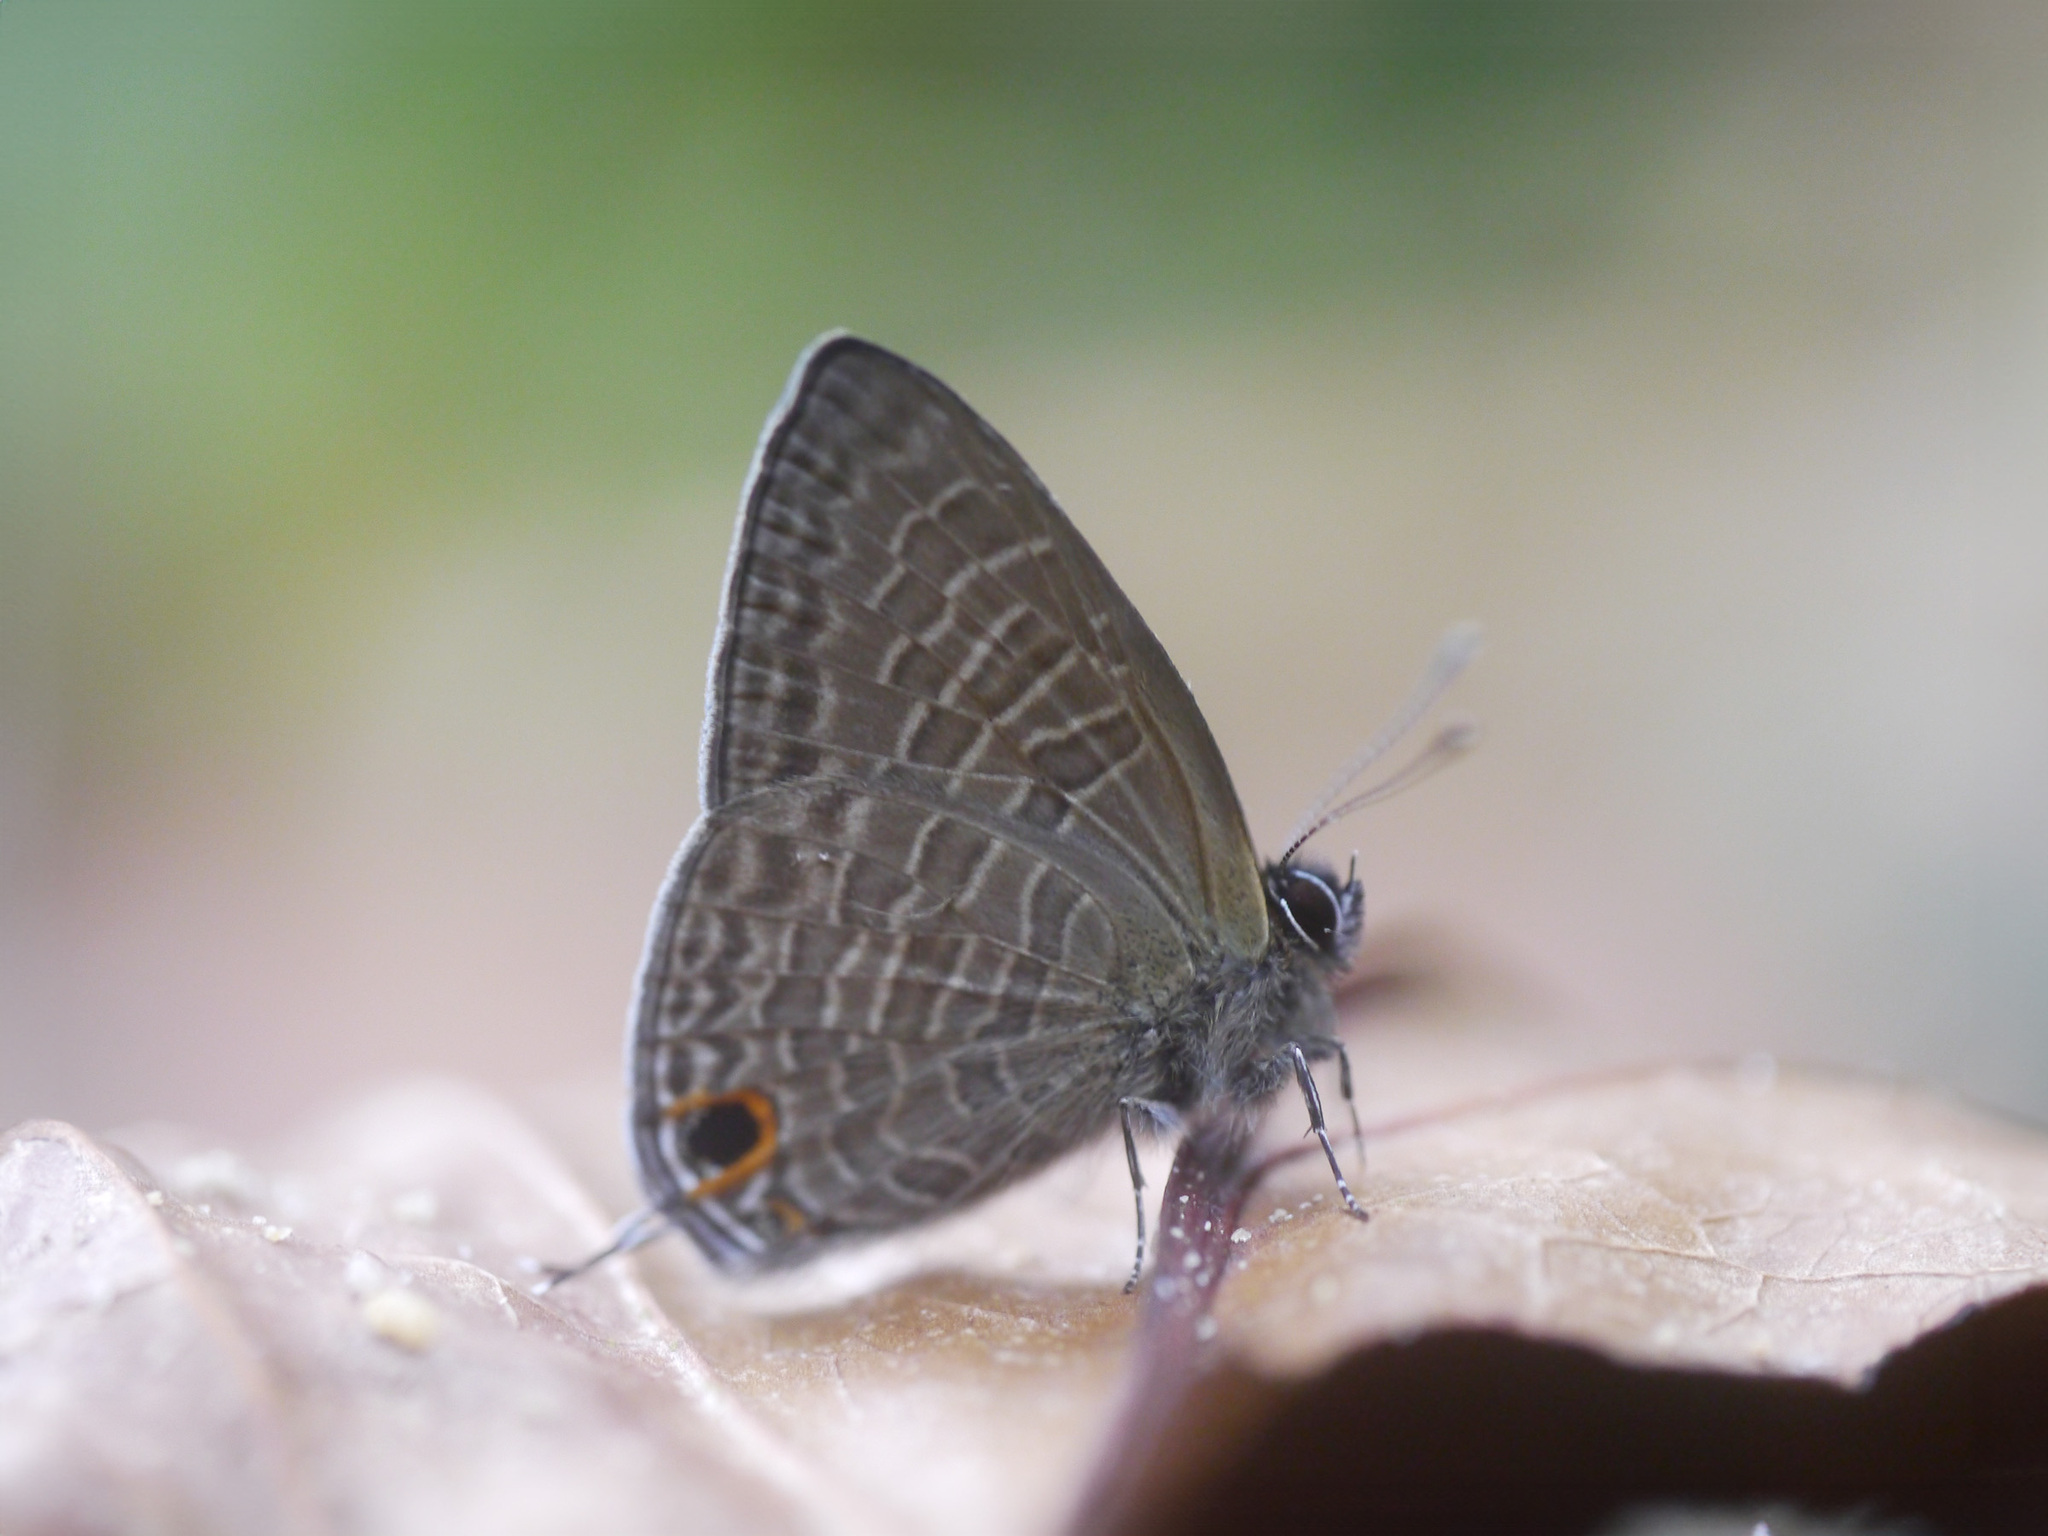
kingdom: Animalia
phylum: Arthropoda
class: Insecta
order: Lepidoptera
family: Lycaenidae
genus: Ionolyce
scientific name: Ionolyce helicon
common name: Pointed line blue
